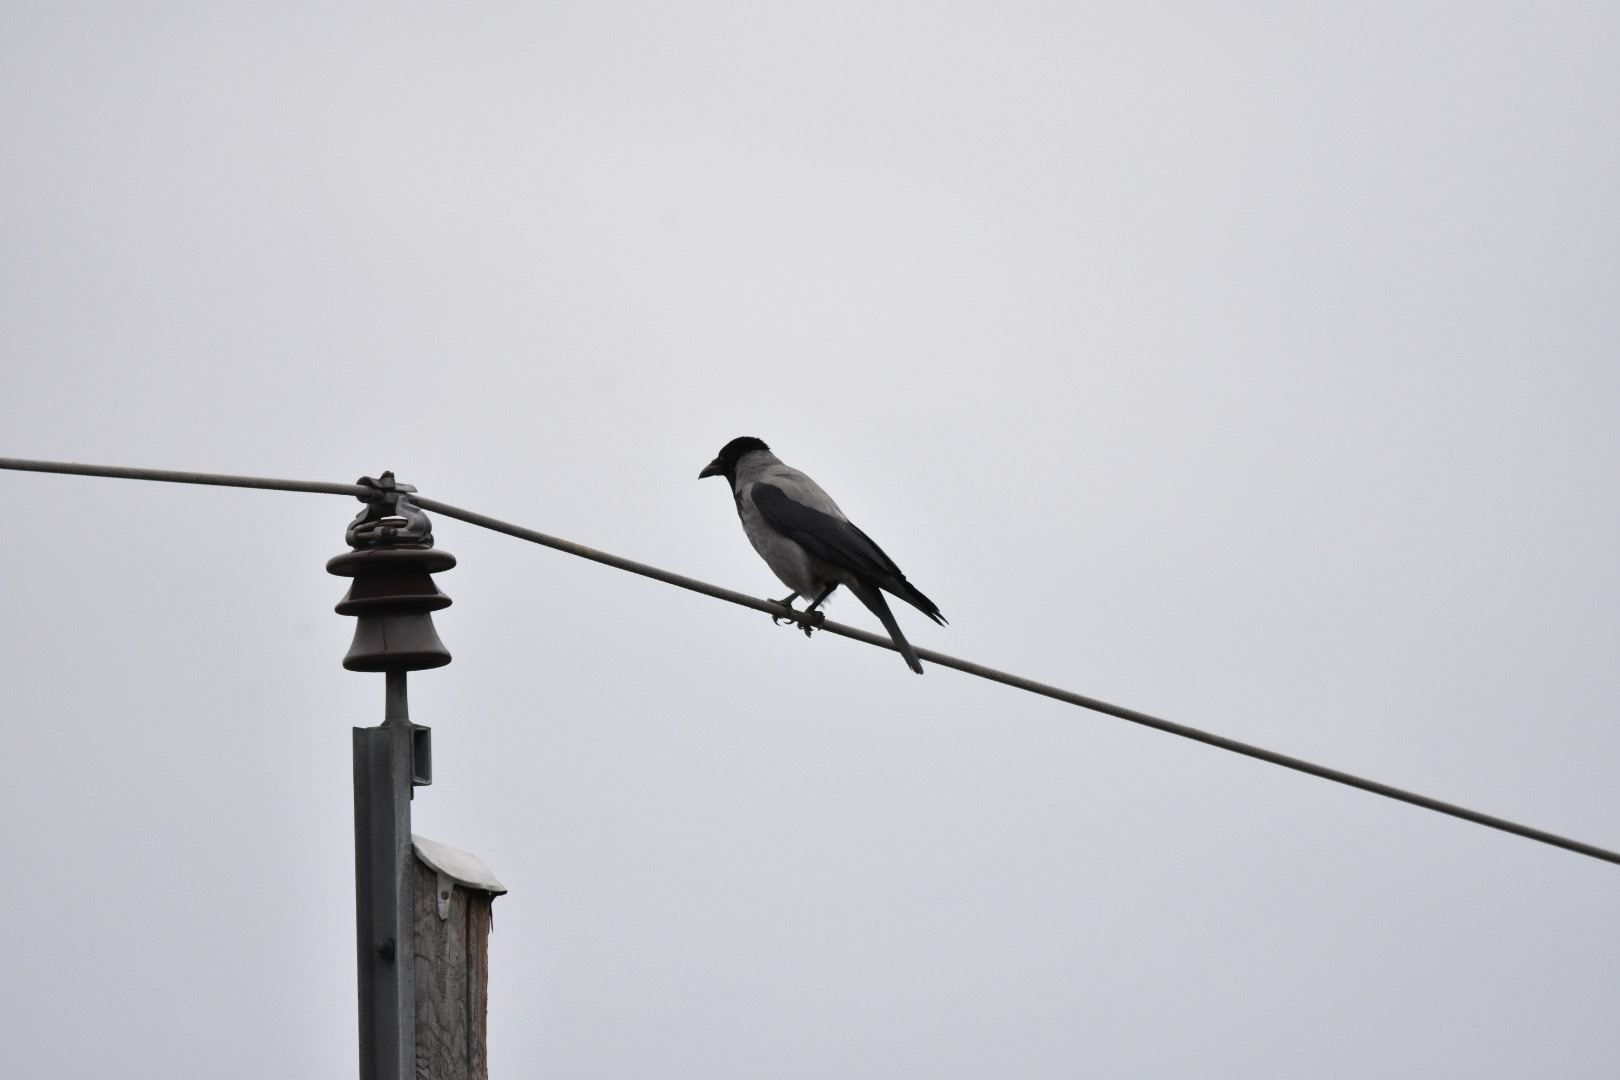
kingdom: Animalia
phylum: Chordata
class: Aves
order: Passeriformes
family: Corvidae
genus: Corvus
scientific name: Corvus cornix
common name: Hooded crow
